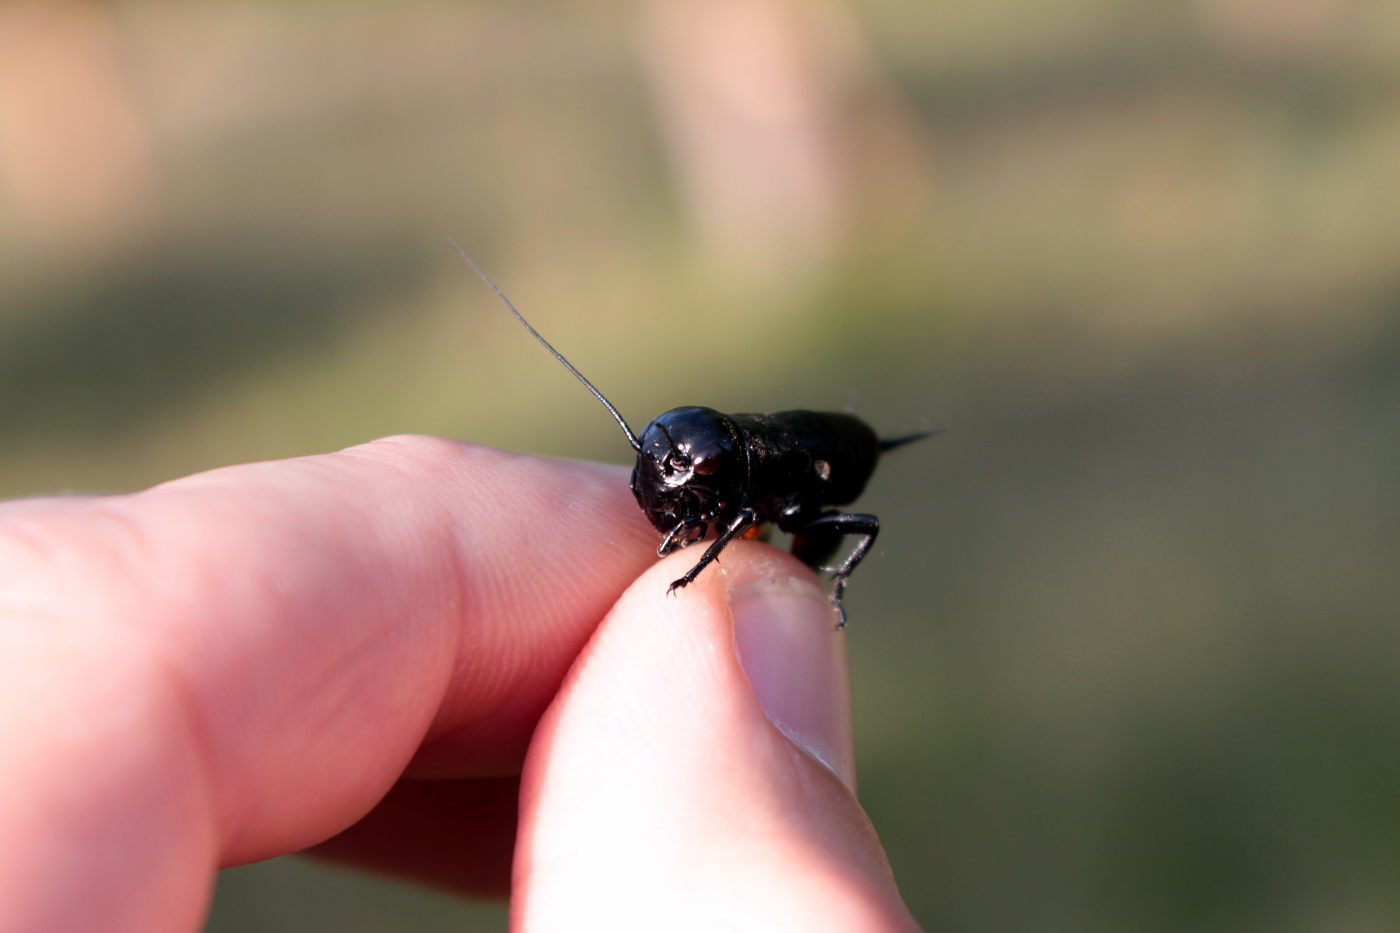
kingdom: Animalia
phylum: Arthropoda
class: Insecta
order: Orthoptera
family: Gryllidae
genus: Gryllus
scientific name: Gryllus campestris
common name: Field cricket
